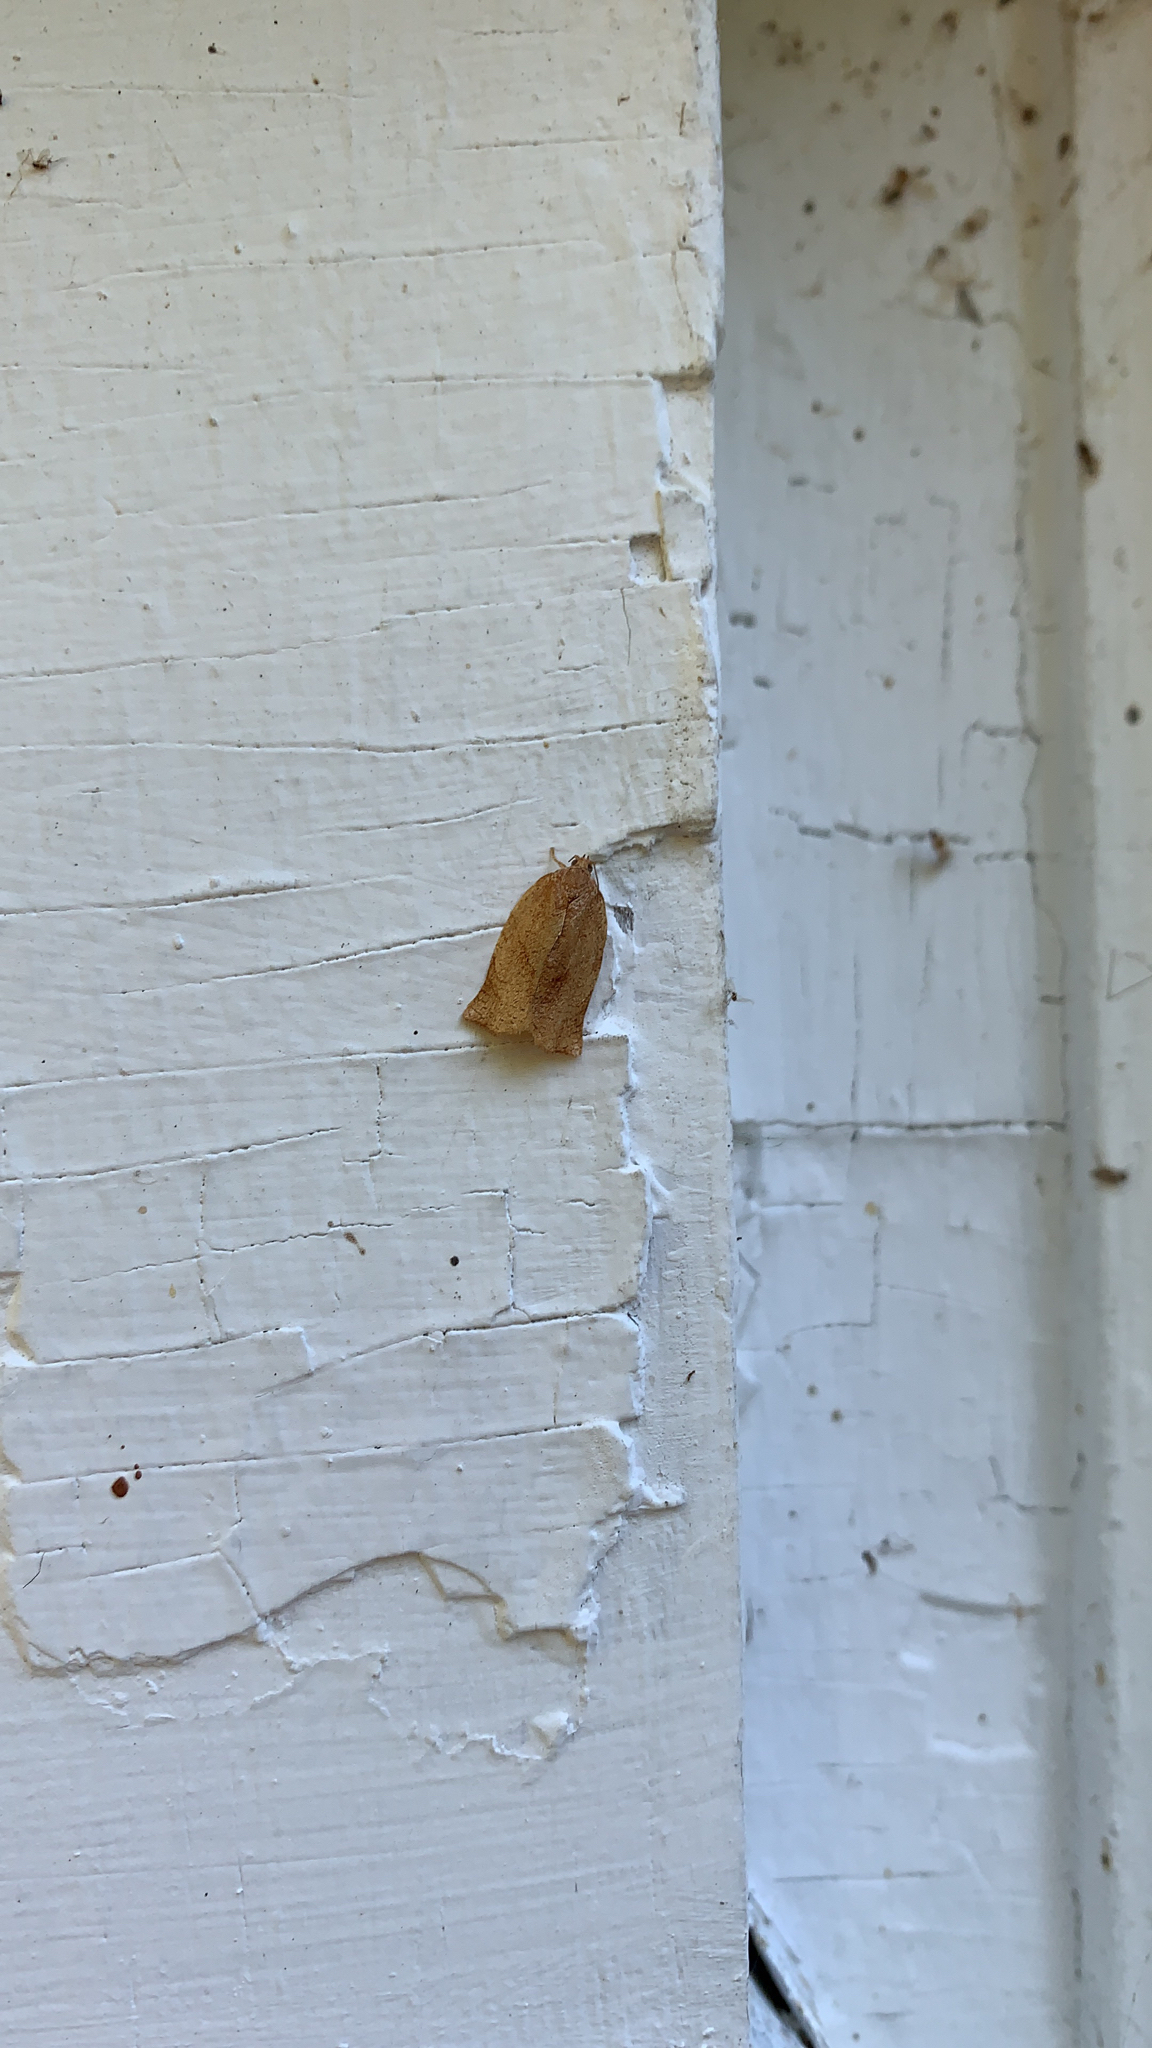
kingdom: Animalia
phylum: Arthropoda
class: Insecta
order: Lepidoptera
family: Tortricidae
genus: Choristoneura
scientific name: Choristoneura rosaceana
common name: Oblique-banded leafroller moth
